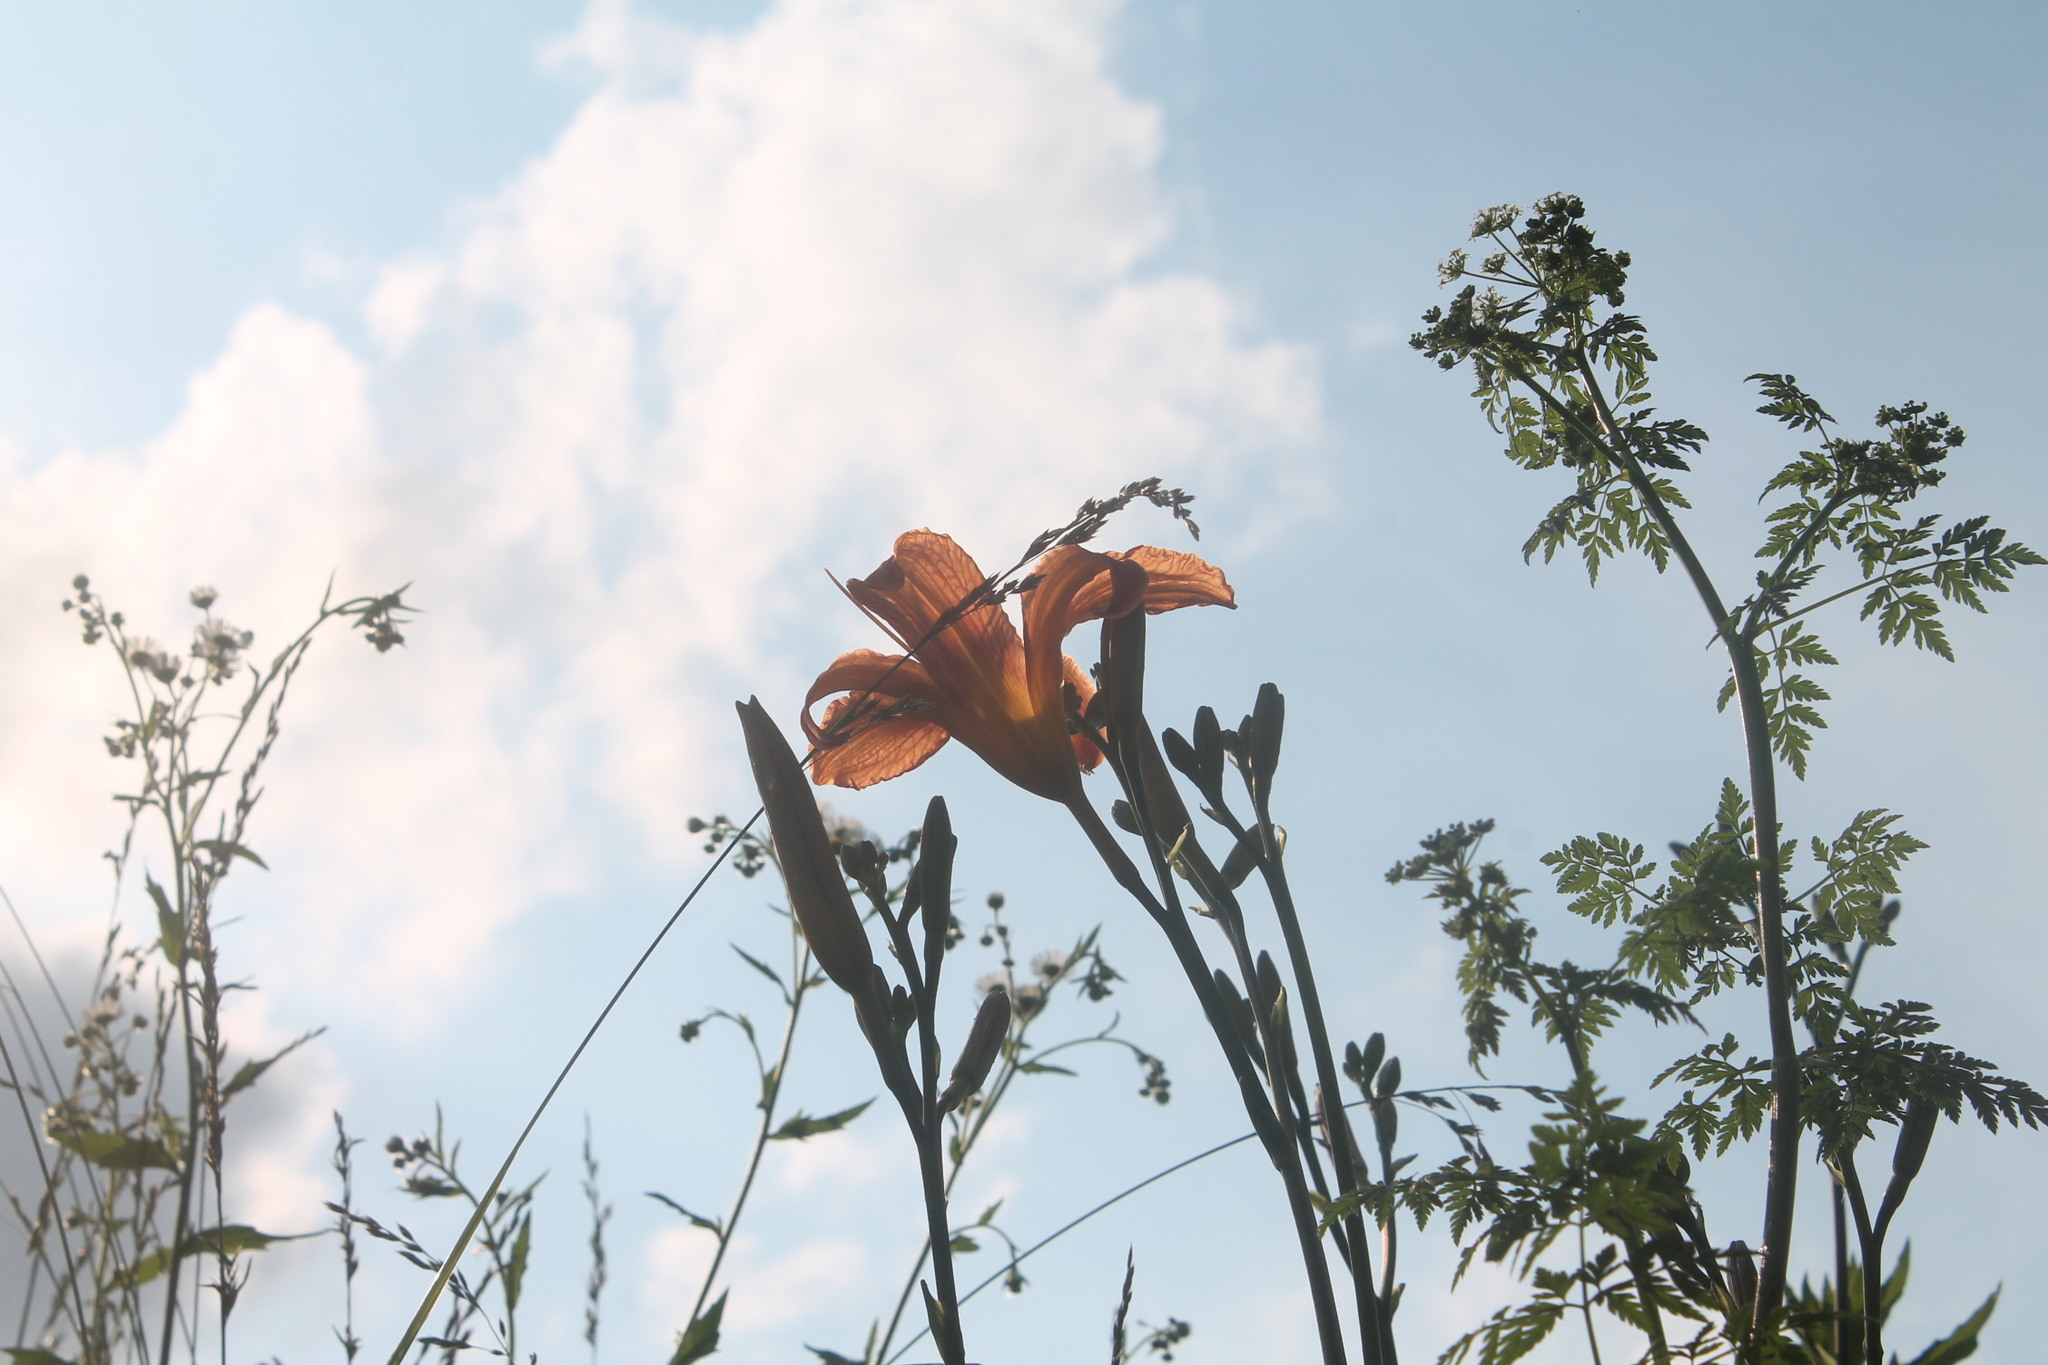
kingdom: Plantae
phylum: Tracheophyta
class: Liliopsida
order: Asparagales
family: Asphodelaceae
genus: Hemerocallis
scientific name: Hemerocallis fulva
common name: Orange day-lily
